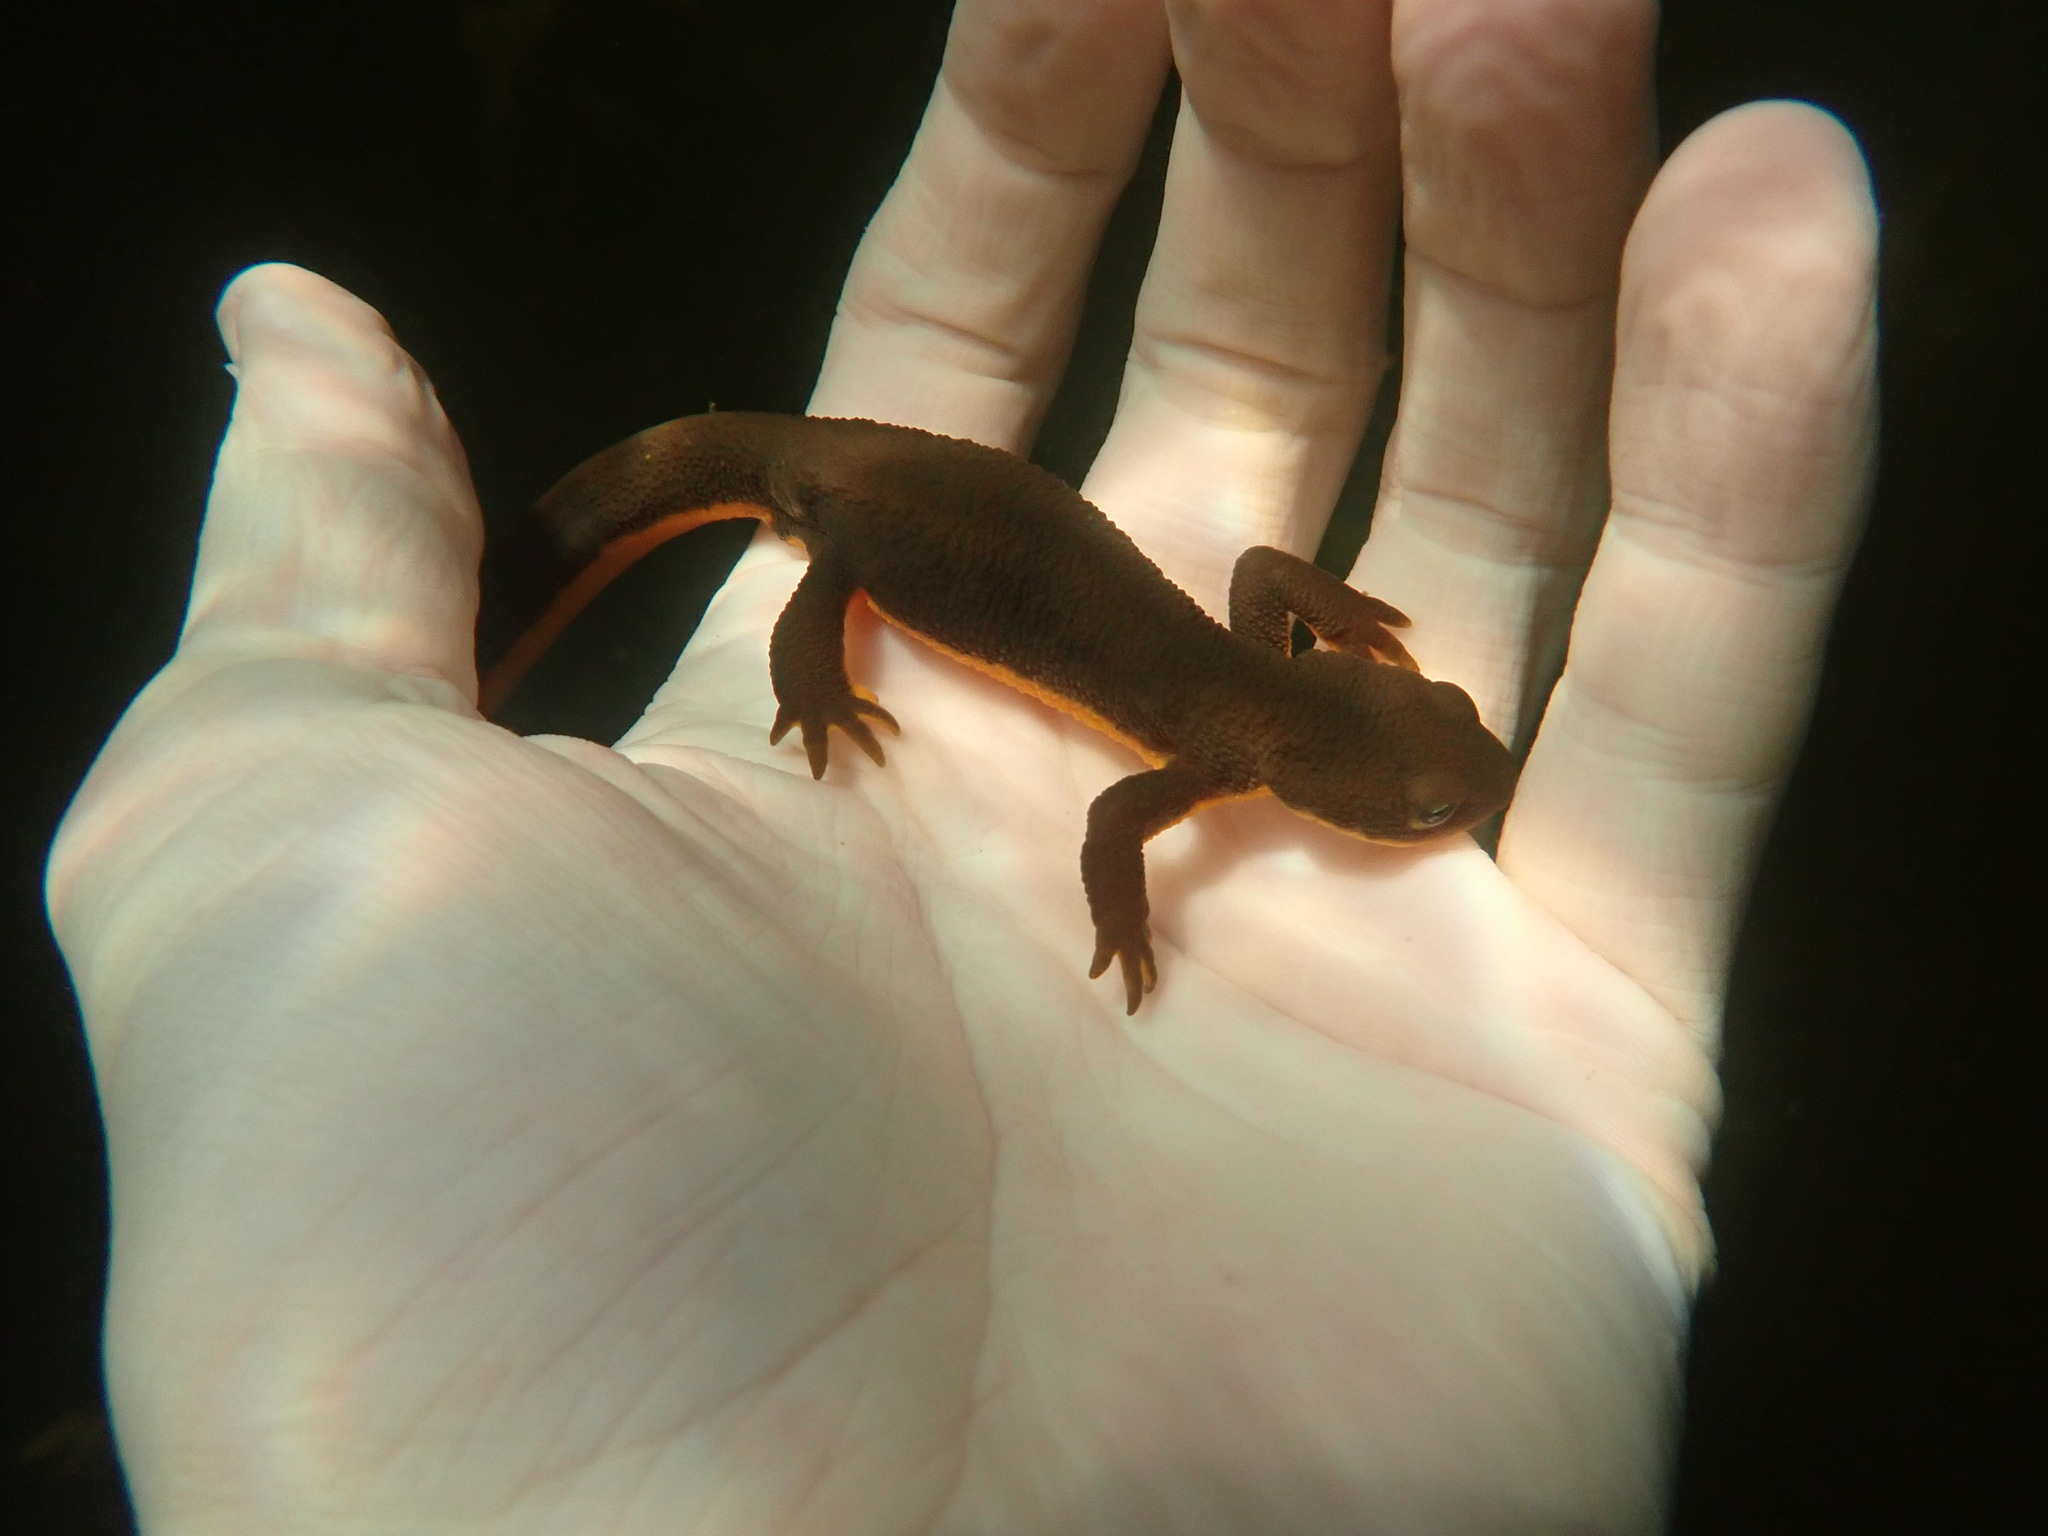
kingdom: Animalia
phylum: Chordata
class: Amphibia
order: Caudata
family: Salamandridae
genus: Taricha
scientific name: Taricha granulosa
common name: Roughskin newt
